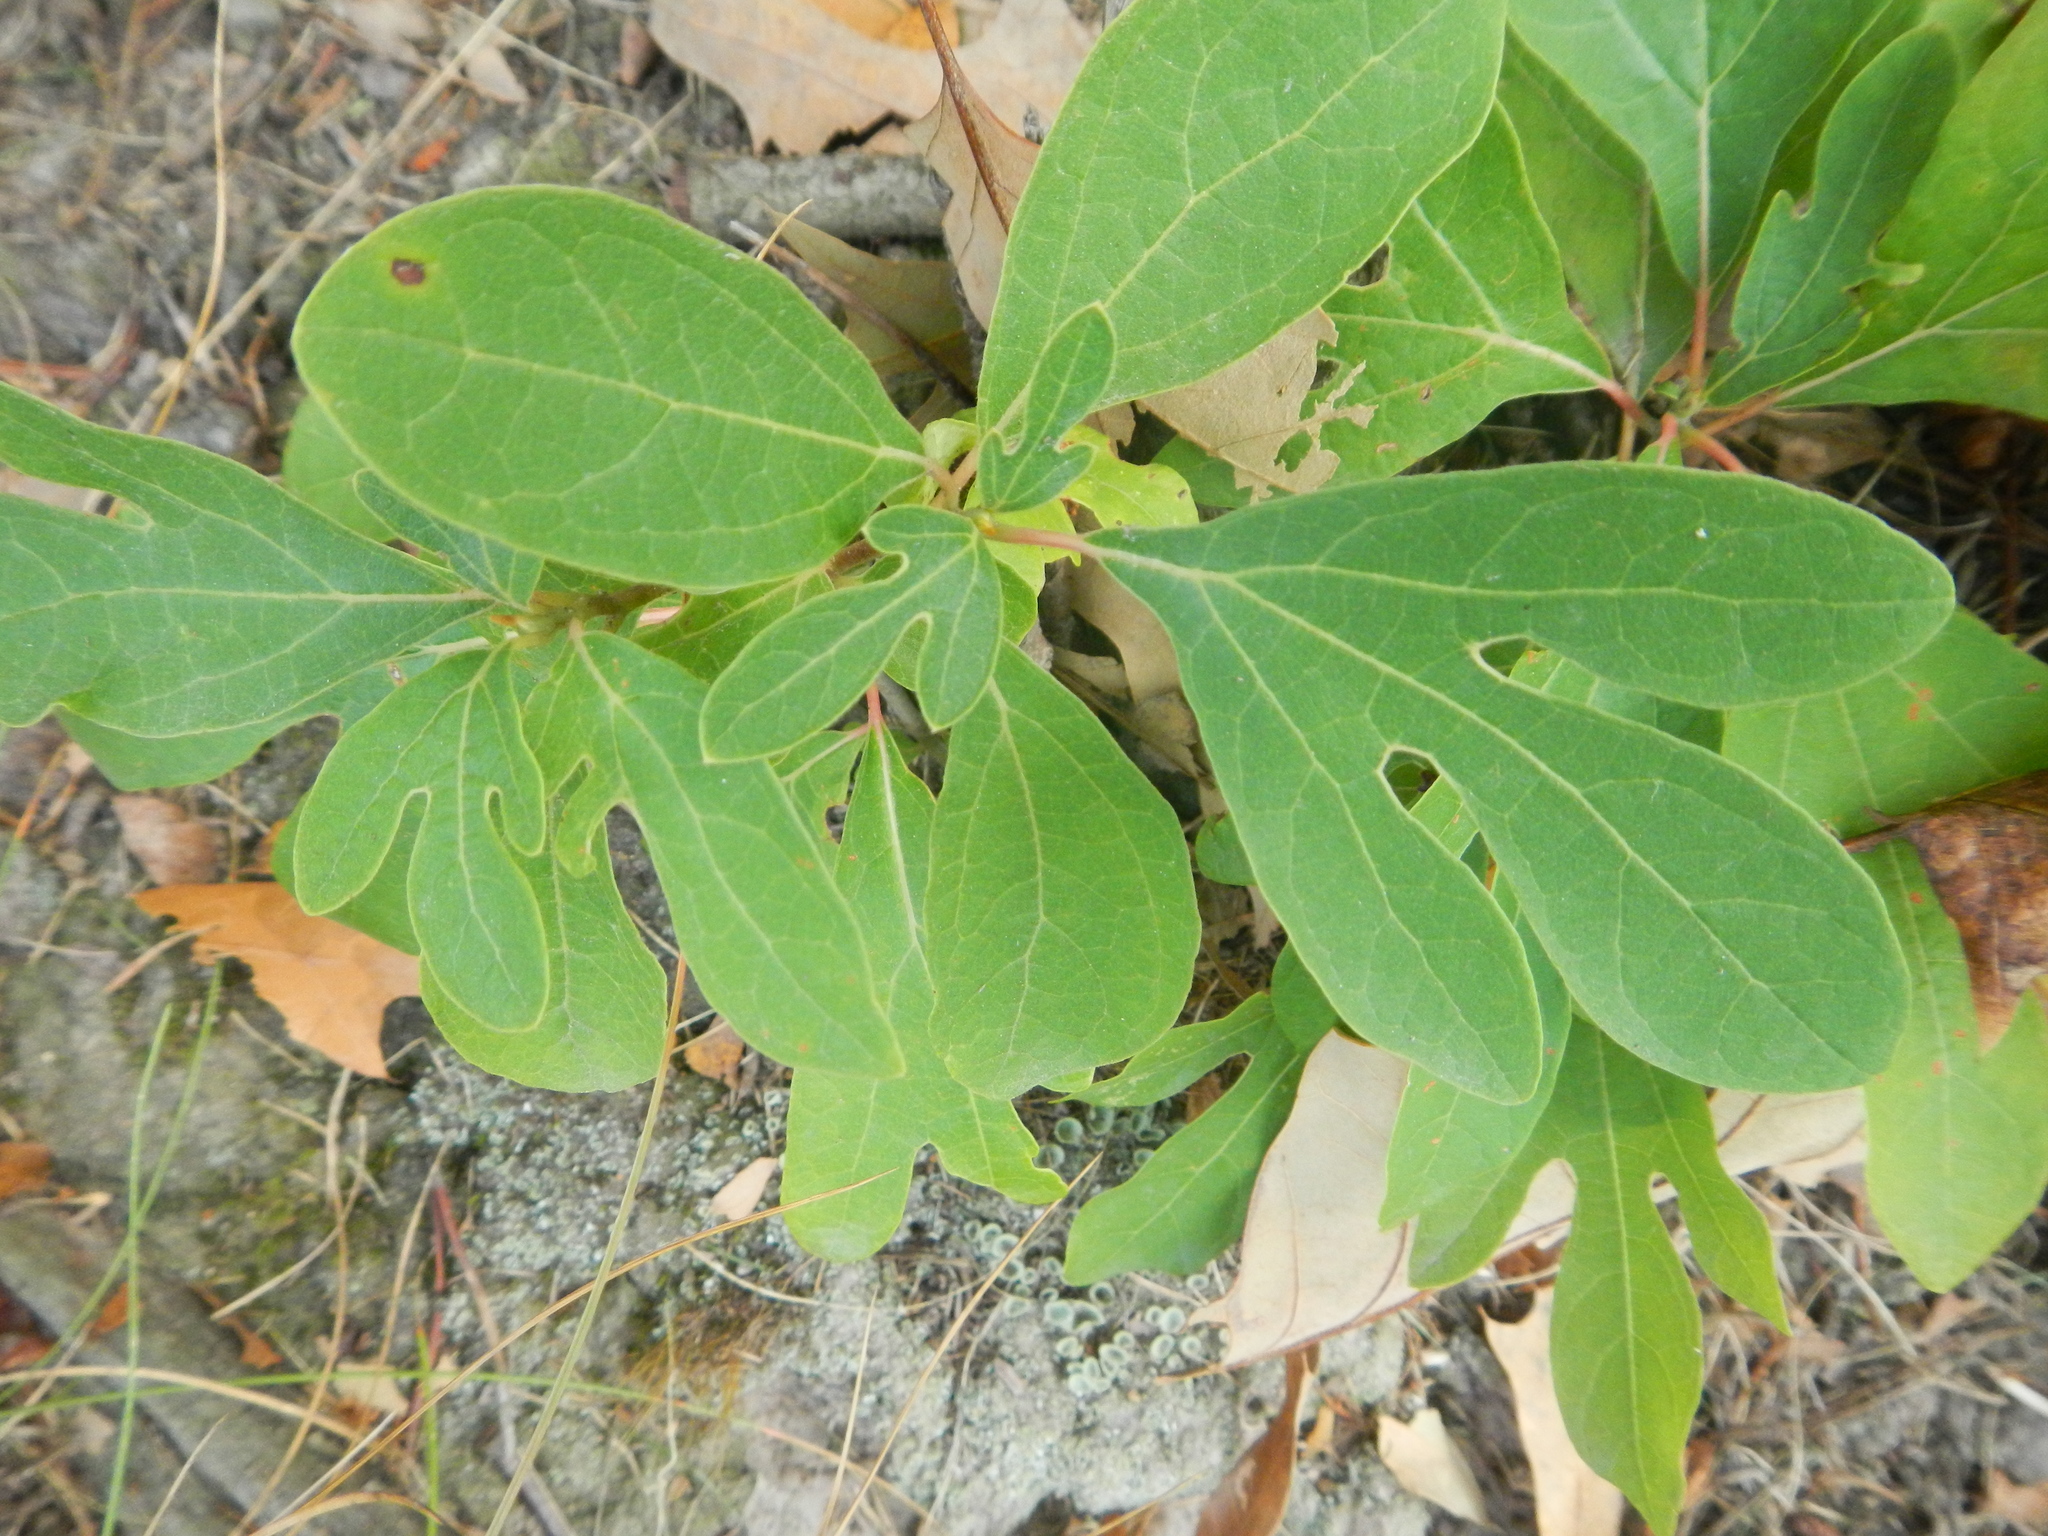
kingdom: Plantae
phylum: Tracheophyta
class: Magnoliopsida
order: Laurales
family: Lauraceae
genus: Sassafras
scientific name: Sassafras albidum
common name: Sassafras
